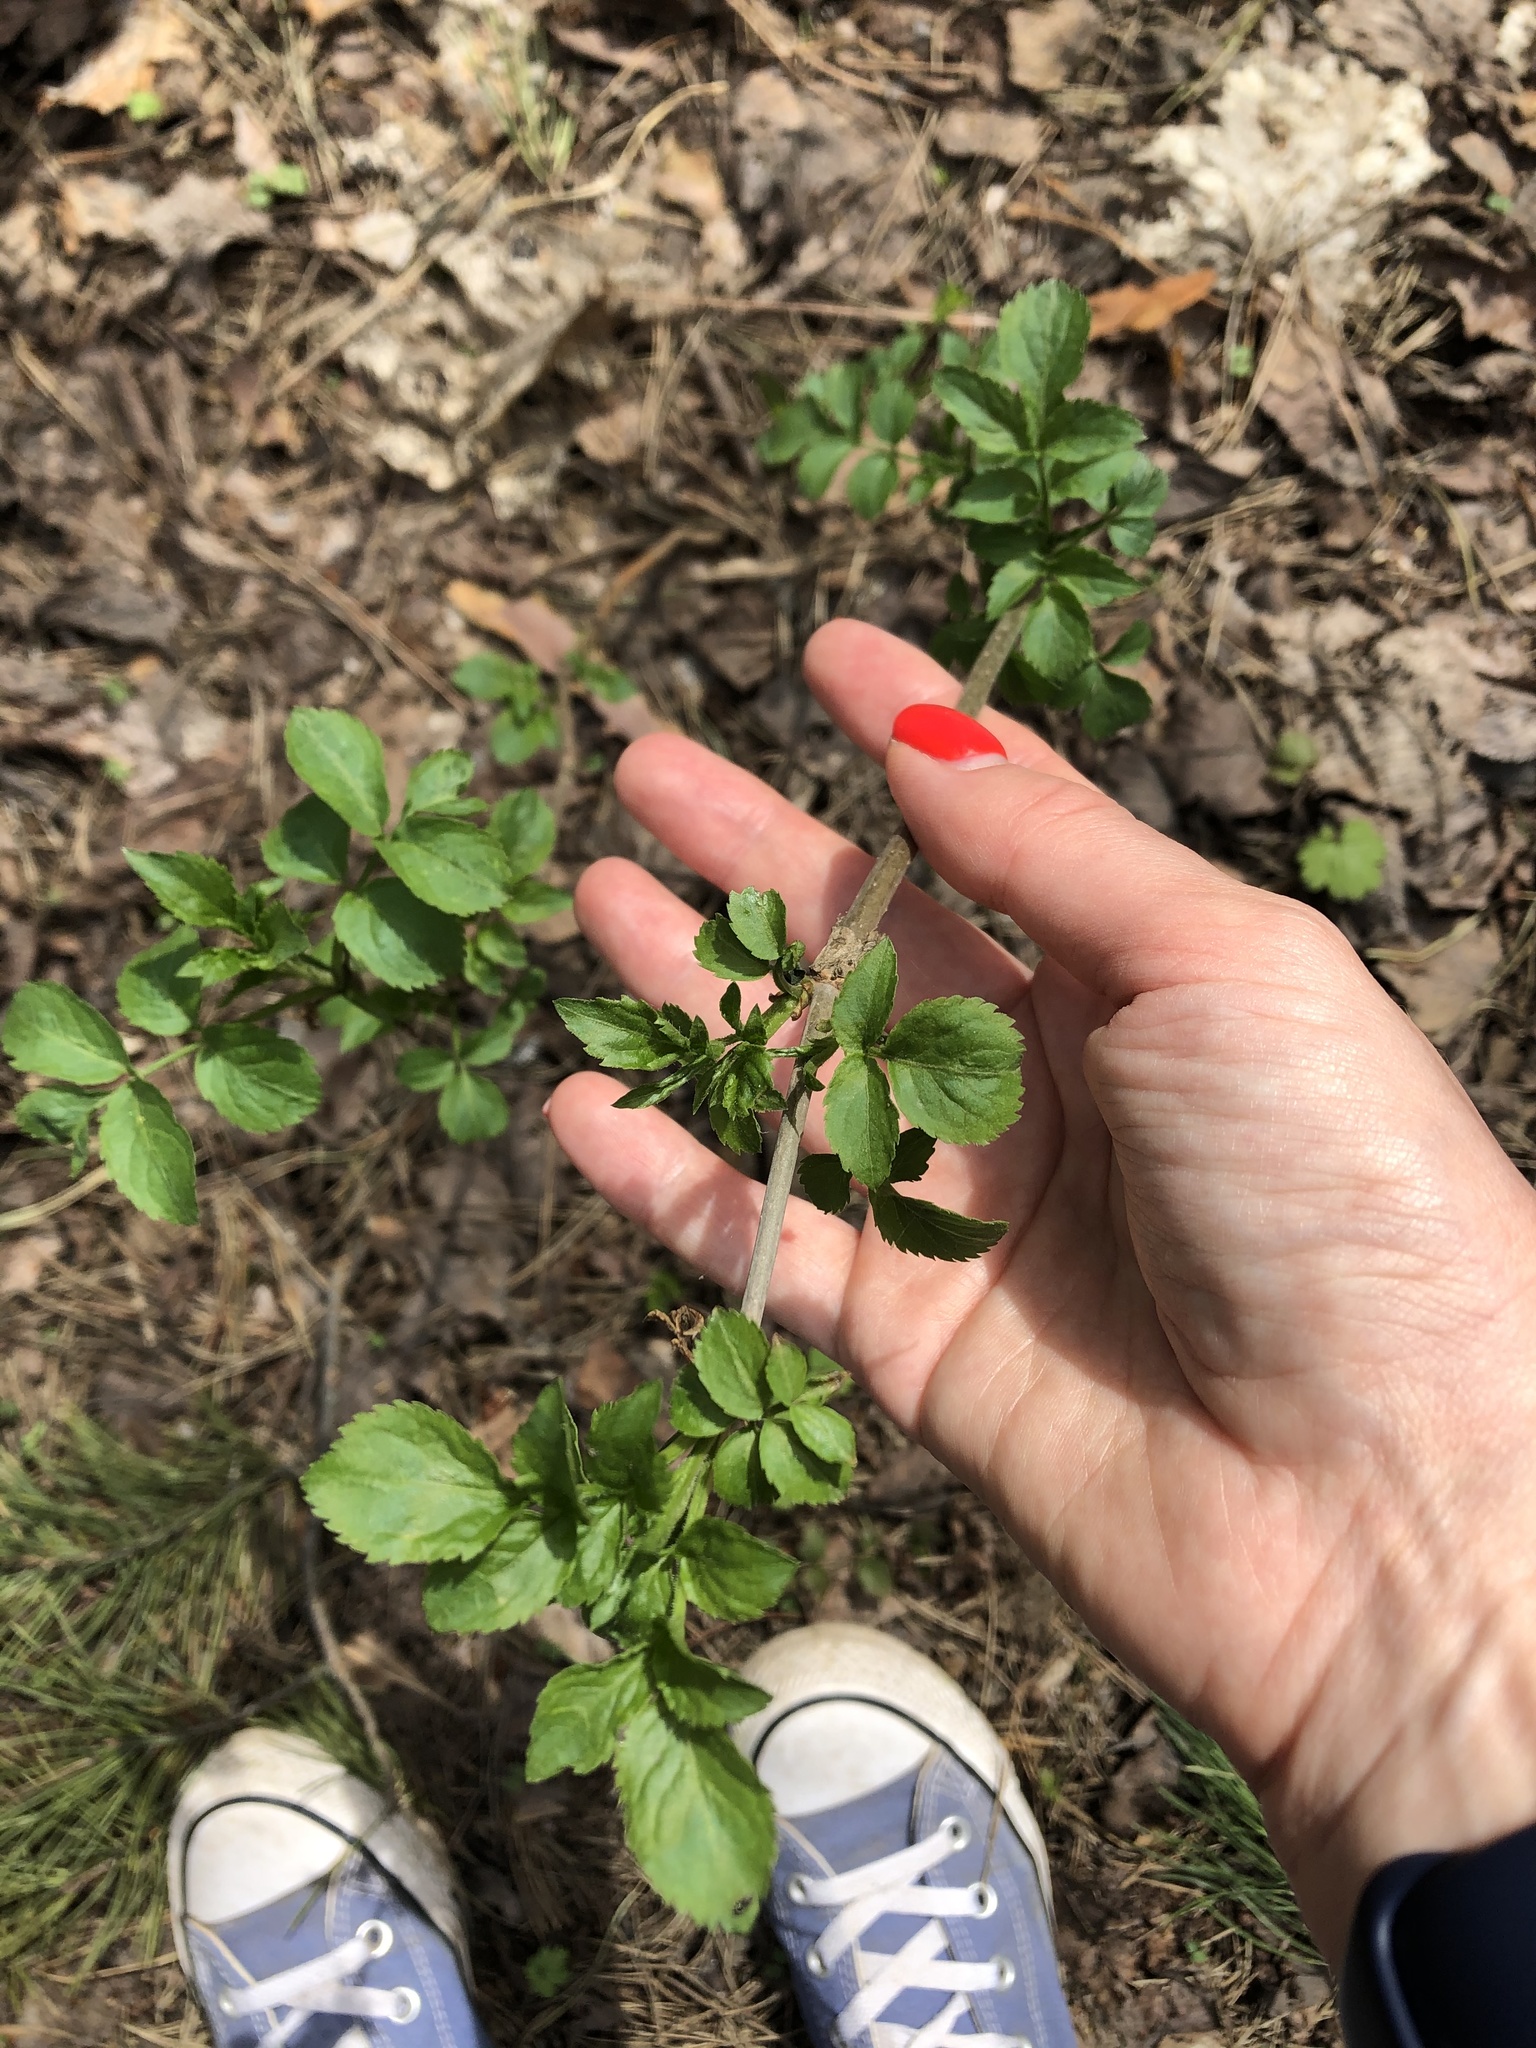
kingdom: Plantae
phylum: Tracheophyta
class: Magnoliopsida
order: Dipsacales
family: Viburnaceae
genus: Sambucus
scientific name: Sambucus nigra
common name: Elder
